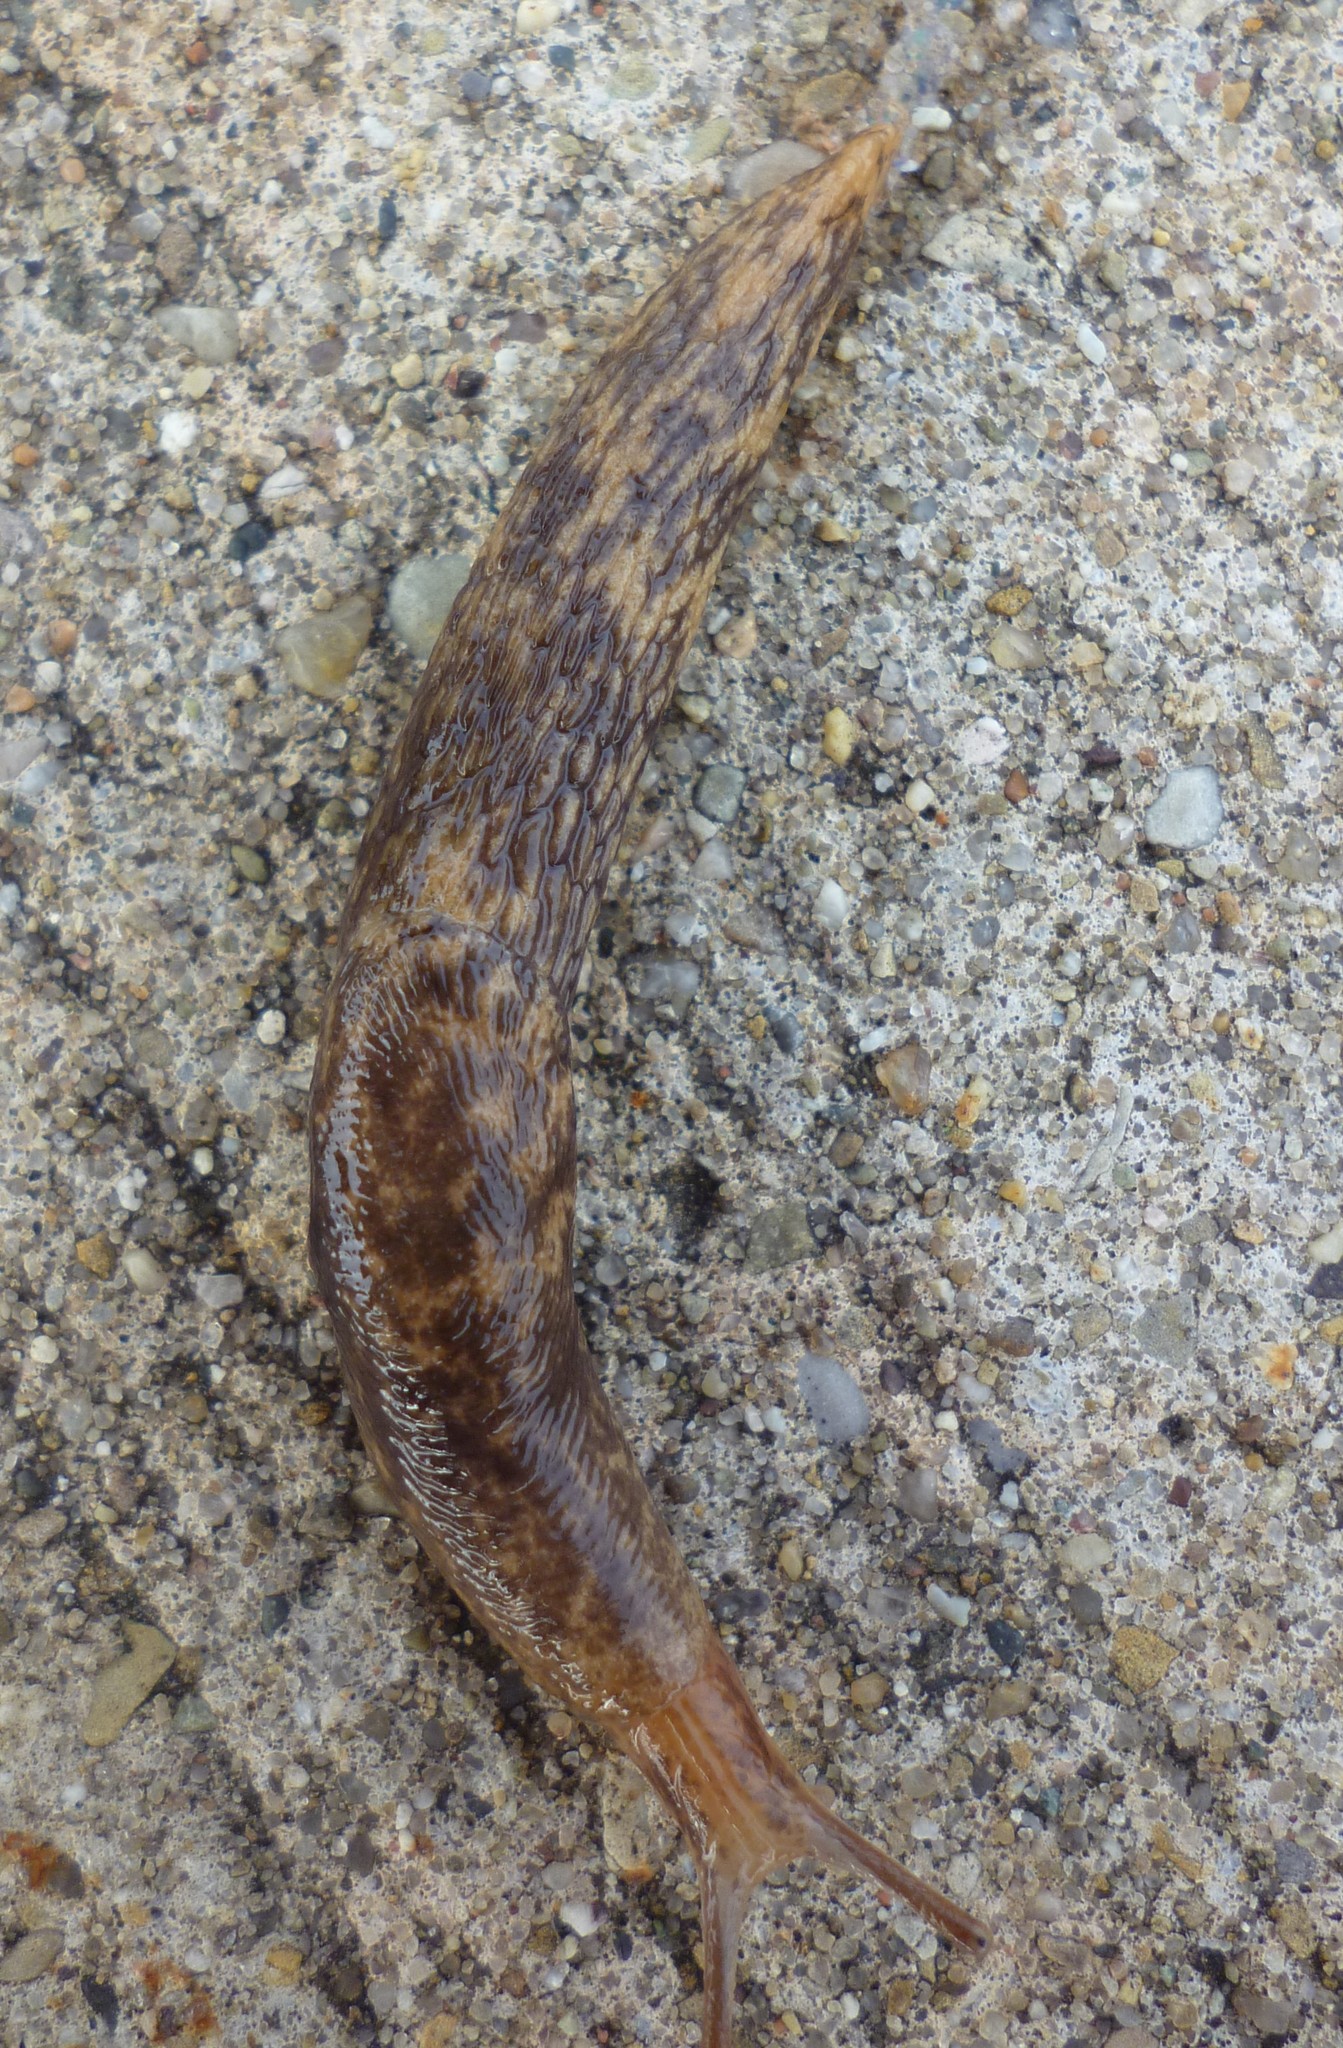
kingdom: Animalia
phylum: Mollusca
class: Gastropoda
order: Stylommatophora
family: Agriolimacidae
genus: Deroceras
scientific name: Deroceras reticulatum
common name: Gray field slug
